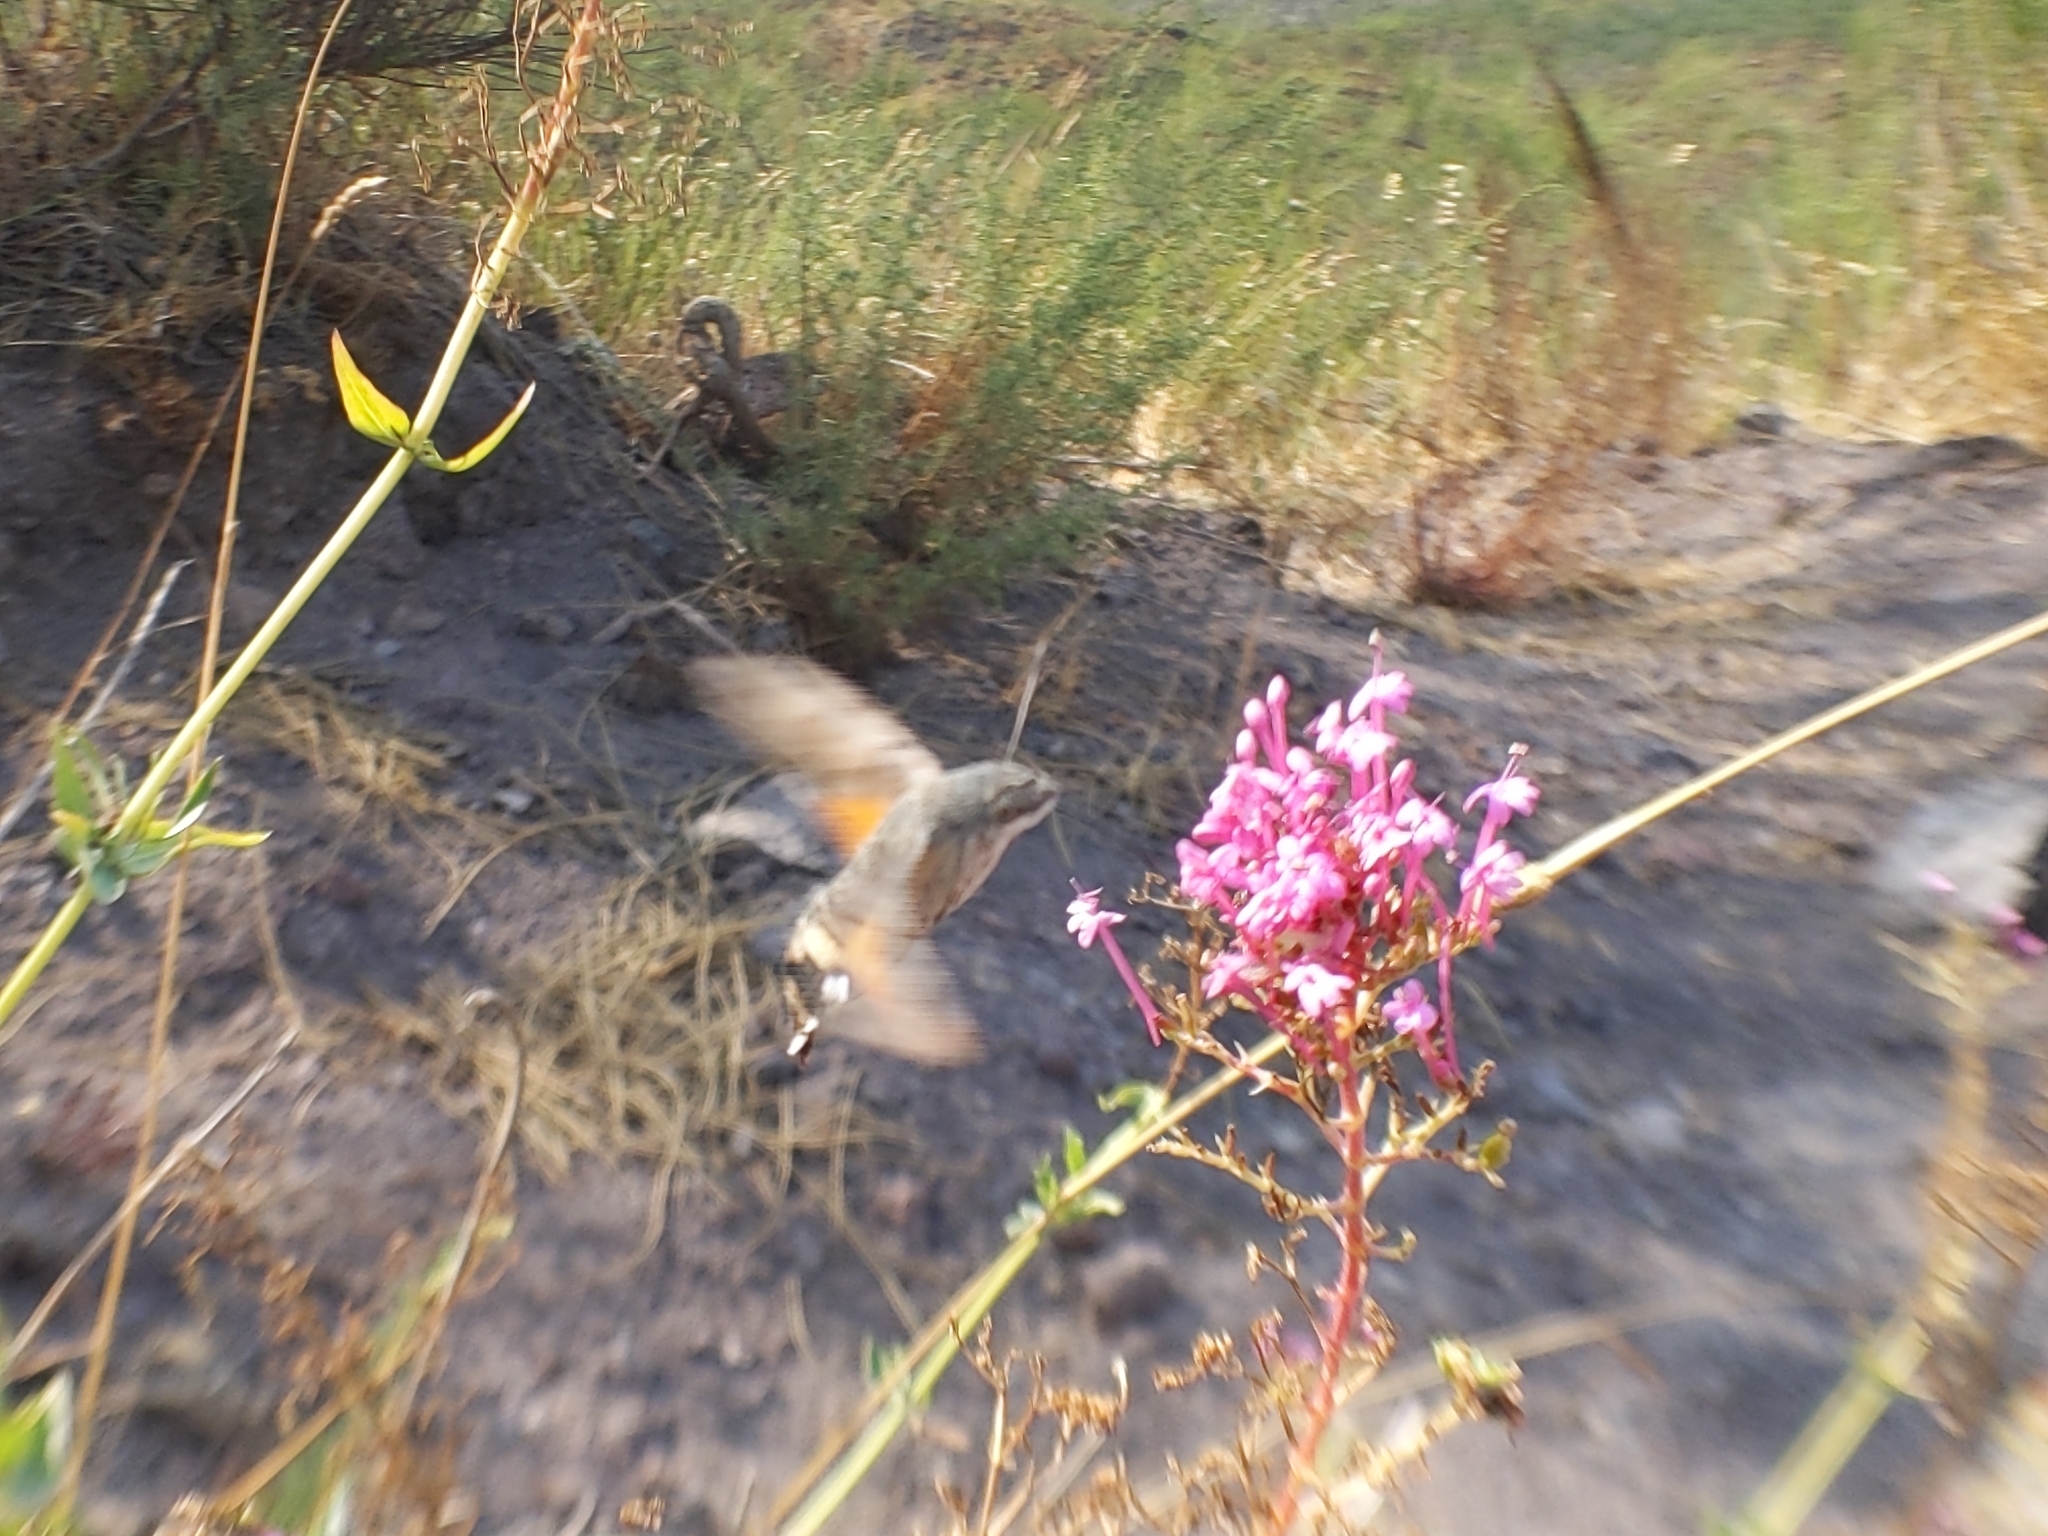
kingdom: Animalia
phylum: Arthropoda
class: Insecta
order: Lepidoptera
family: Sphingidae
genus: Macroglossum
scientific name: Macroglossum stellatarum
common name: Humming-bird hawk-moth
